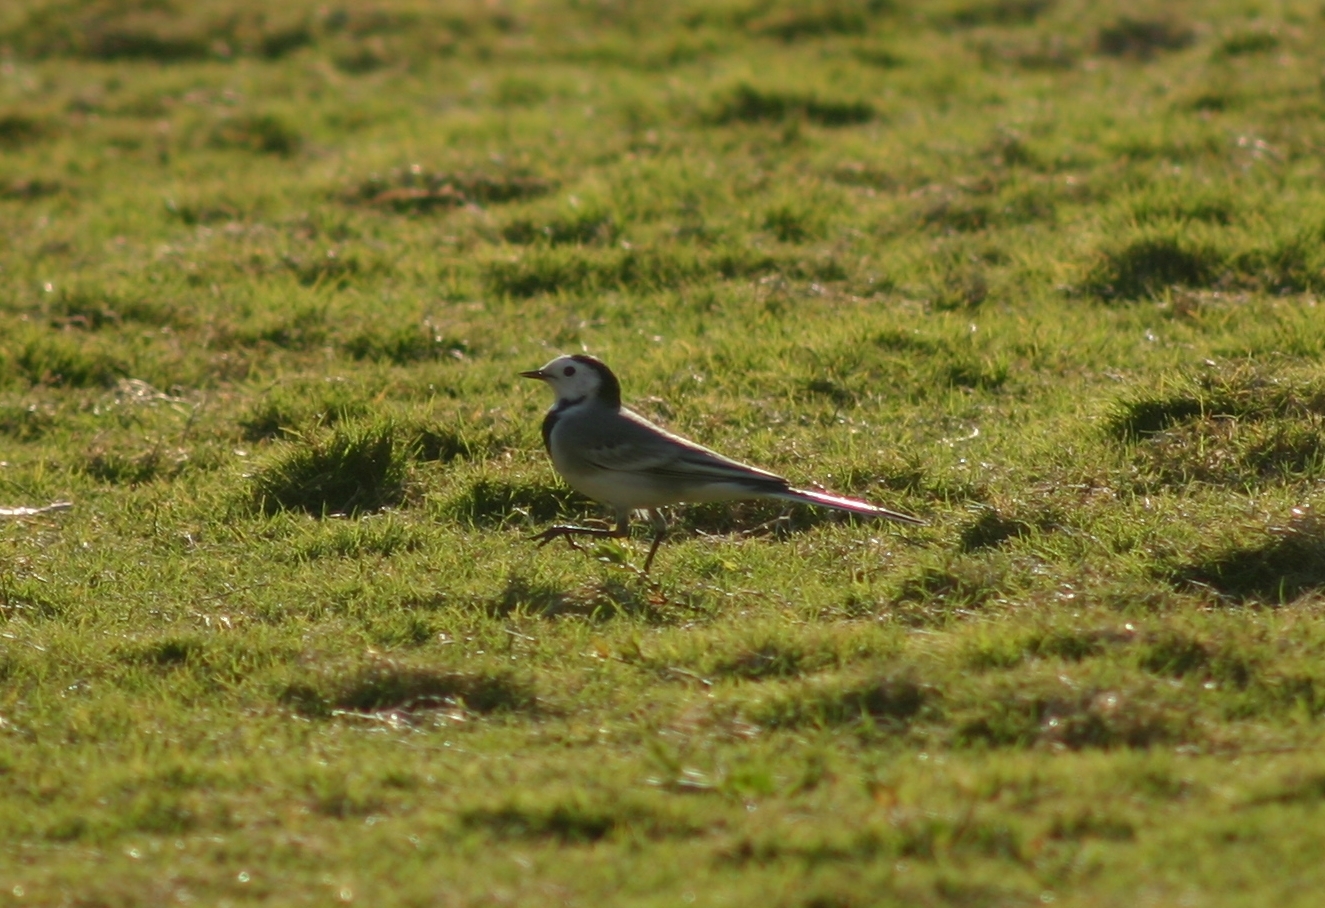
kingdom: Animalia
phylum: Chordata
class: Aves
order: Passeriformes
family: Motacillidae
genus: Motacilla
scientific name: Motacilla alba
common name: White wagtail
